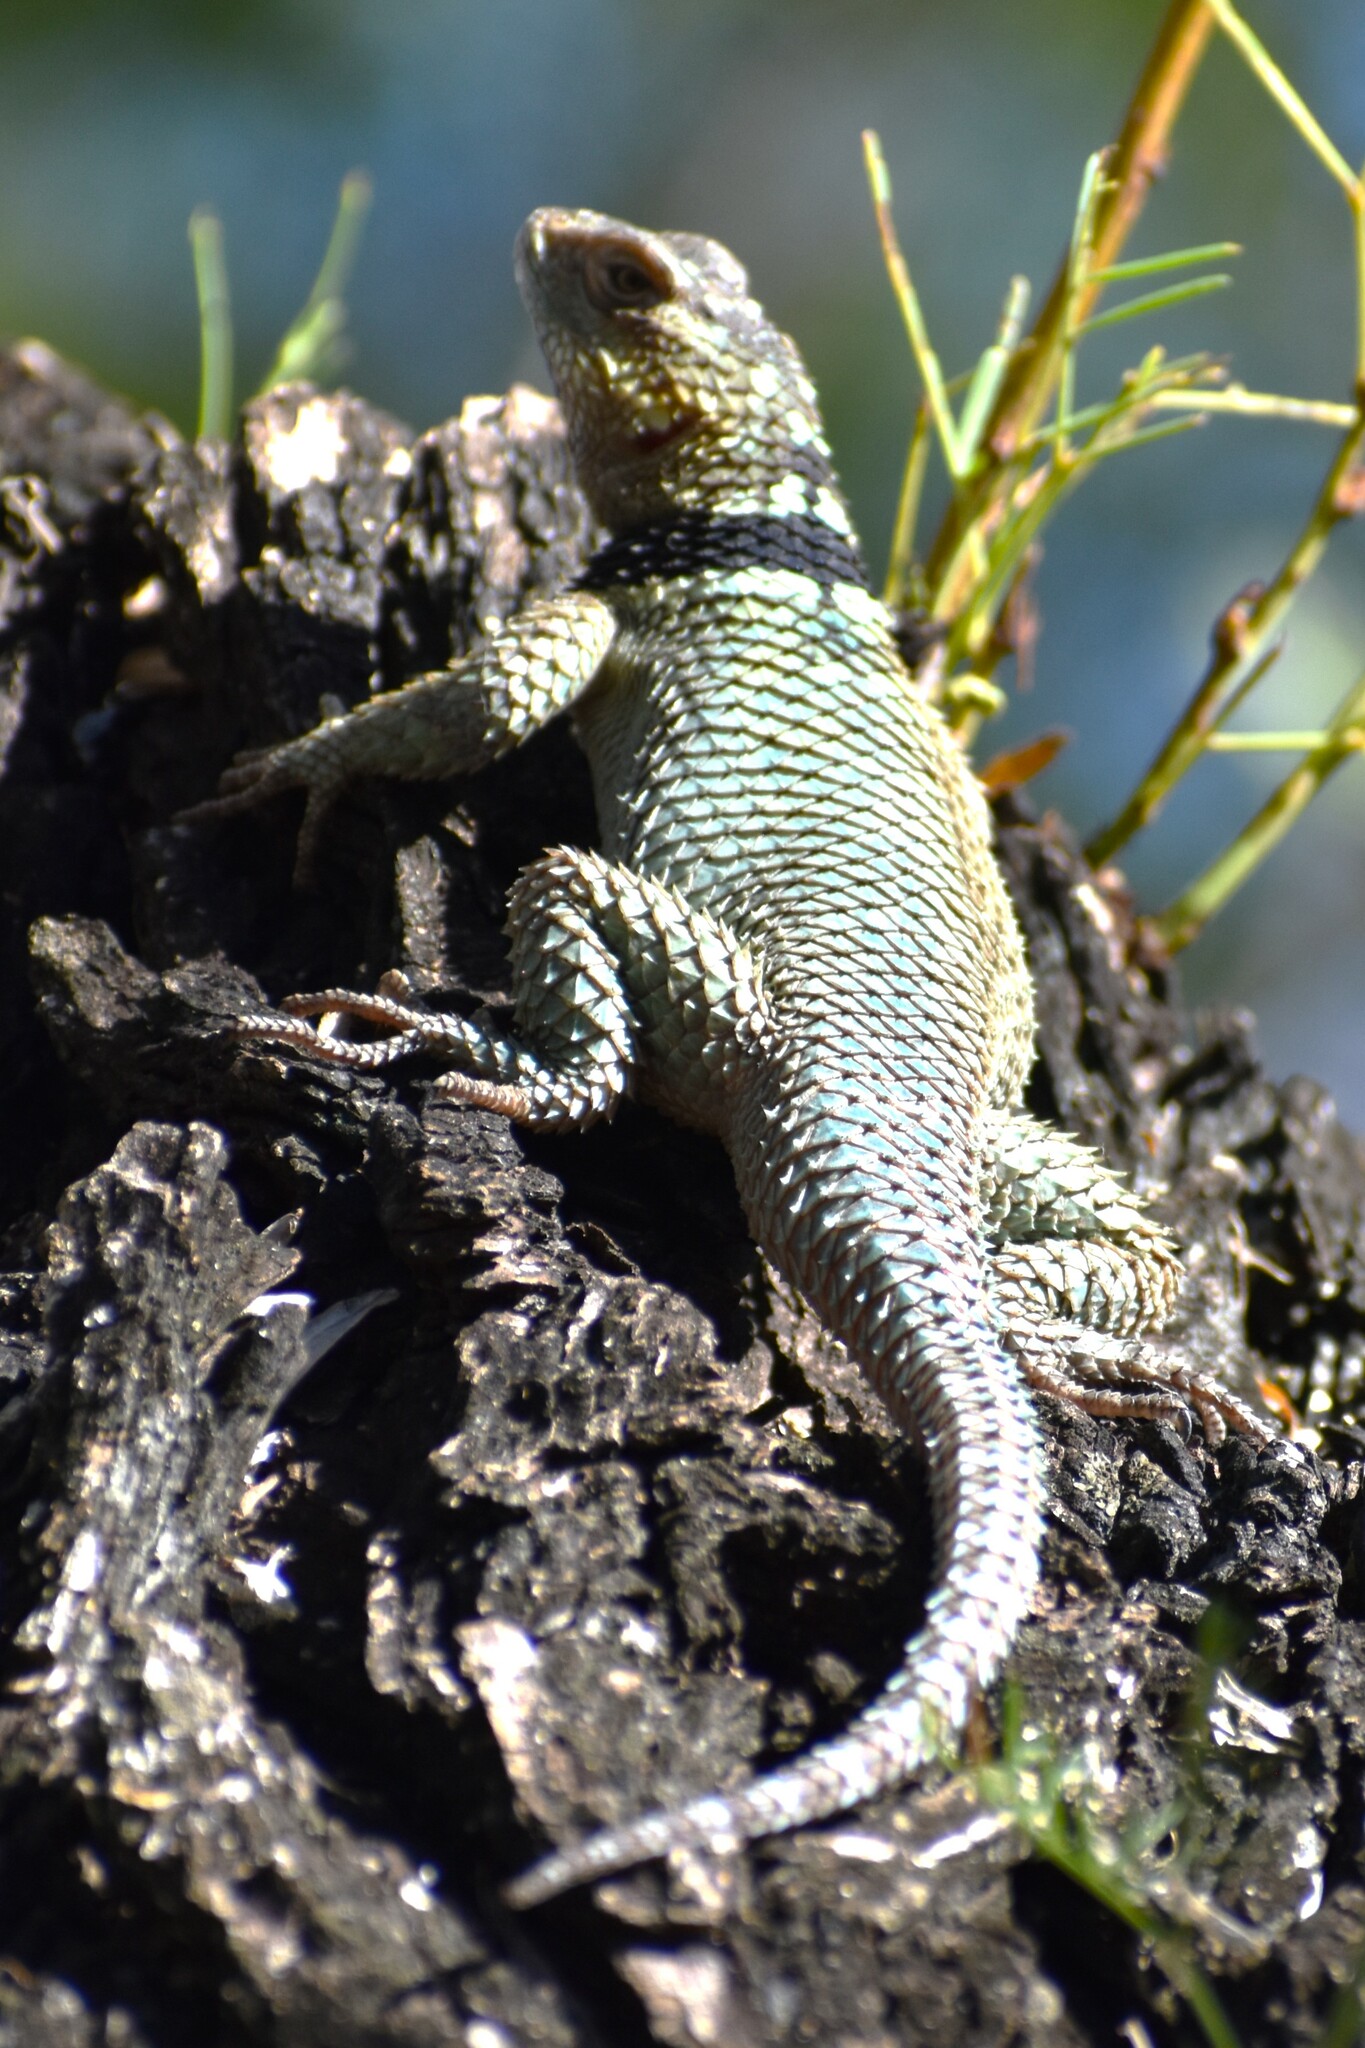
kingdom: Animalia
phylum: Chordata
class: Squamata
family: Phrynosomatidae
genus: Sceloporus
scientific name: Sceloporus cyanogenys
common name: Blue spiny lizard
